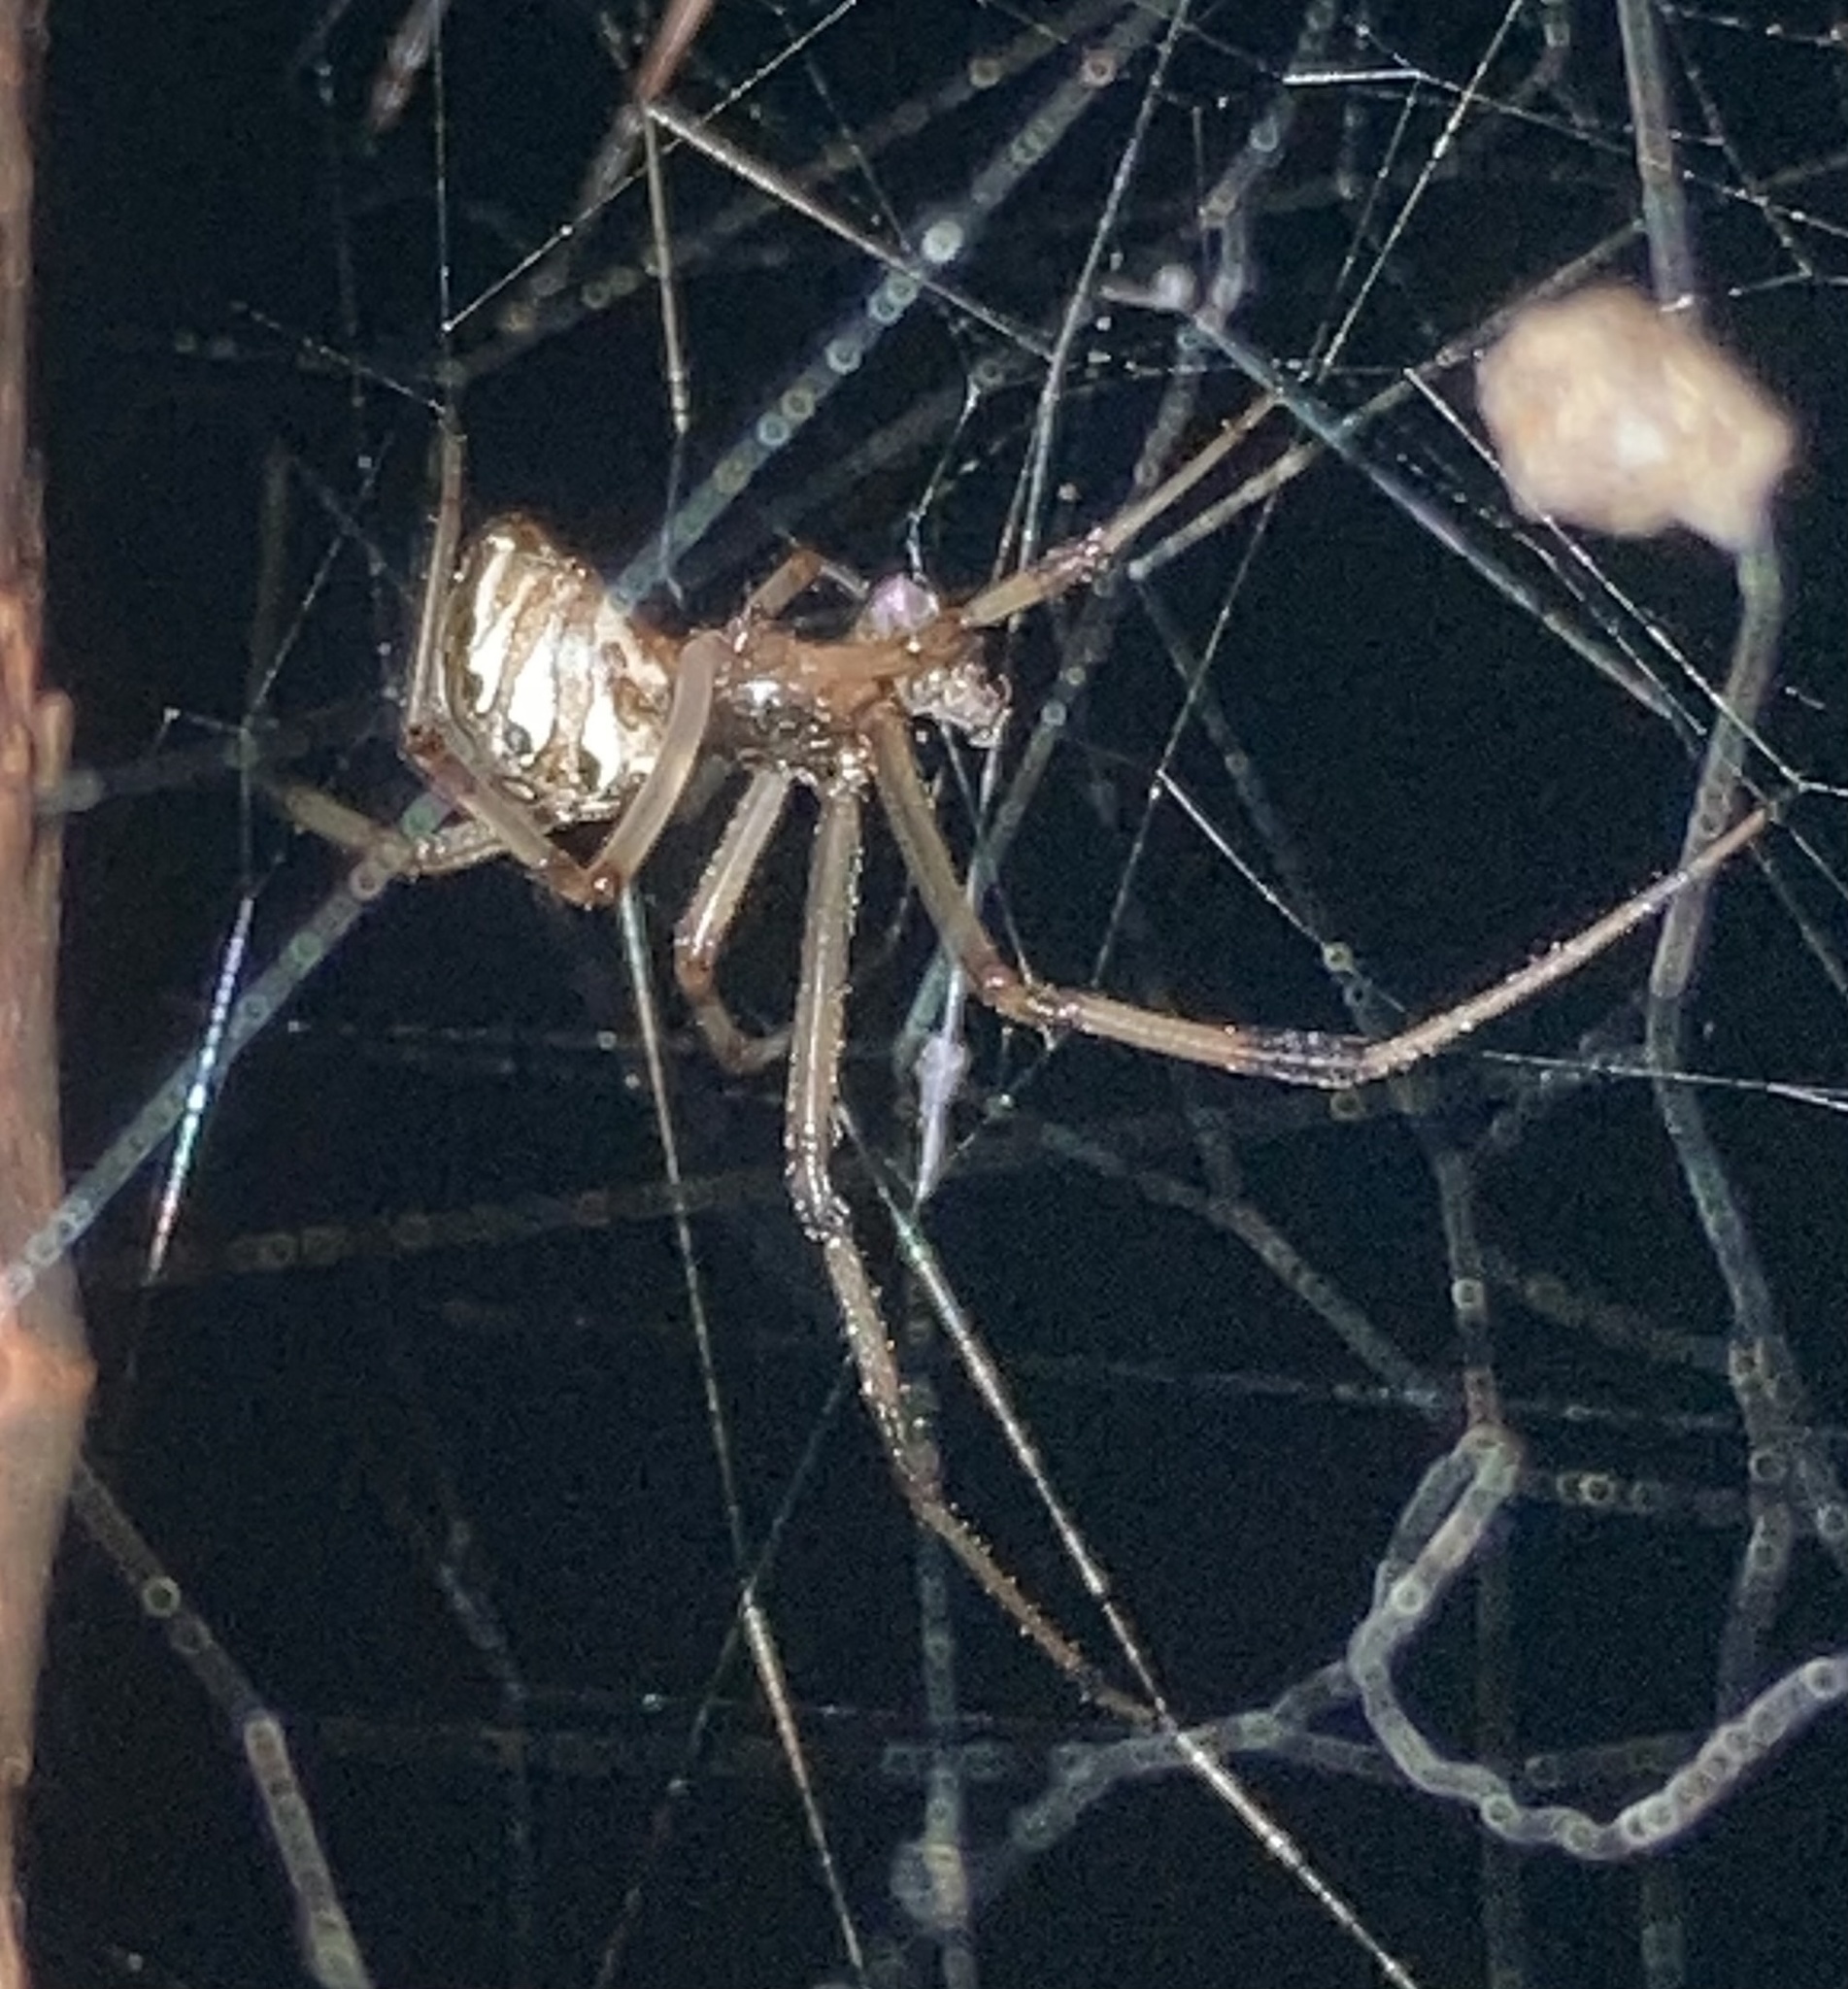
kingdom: Animalia
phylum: Arthropoda
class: Arachnida
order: Araneae
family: Theridiidae
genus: Latrodectus
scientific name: Latrodectus geometricus
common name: Brown widow spider
